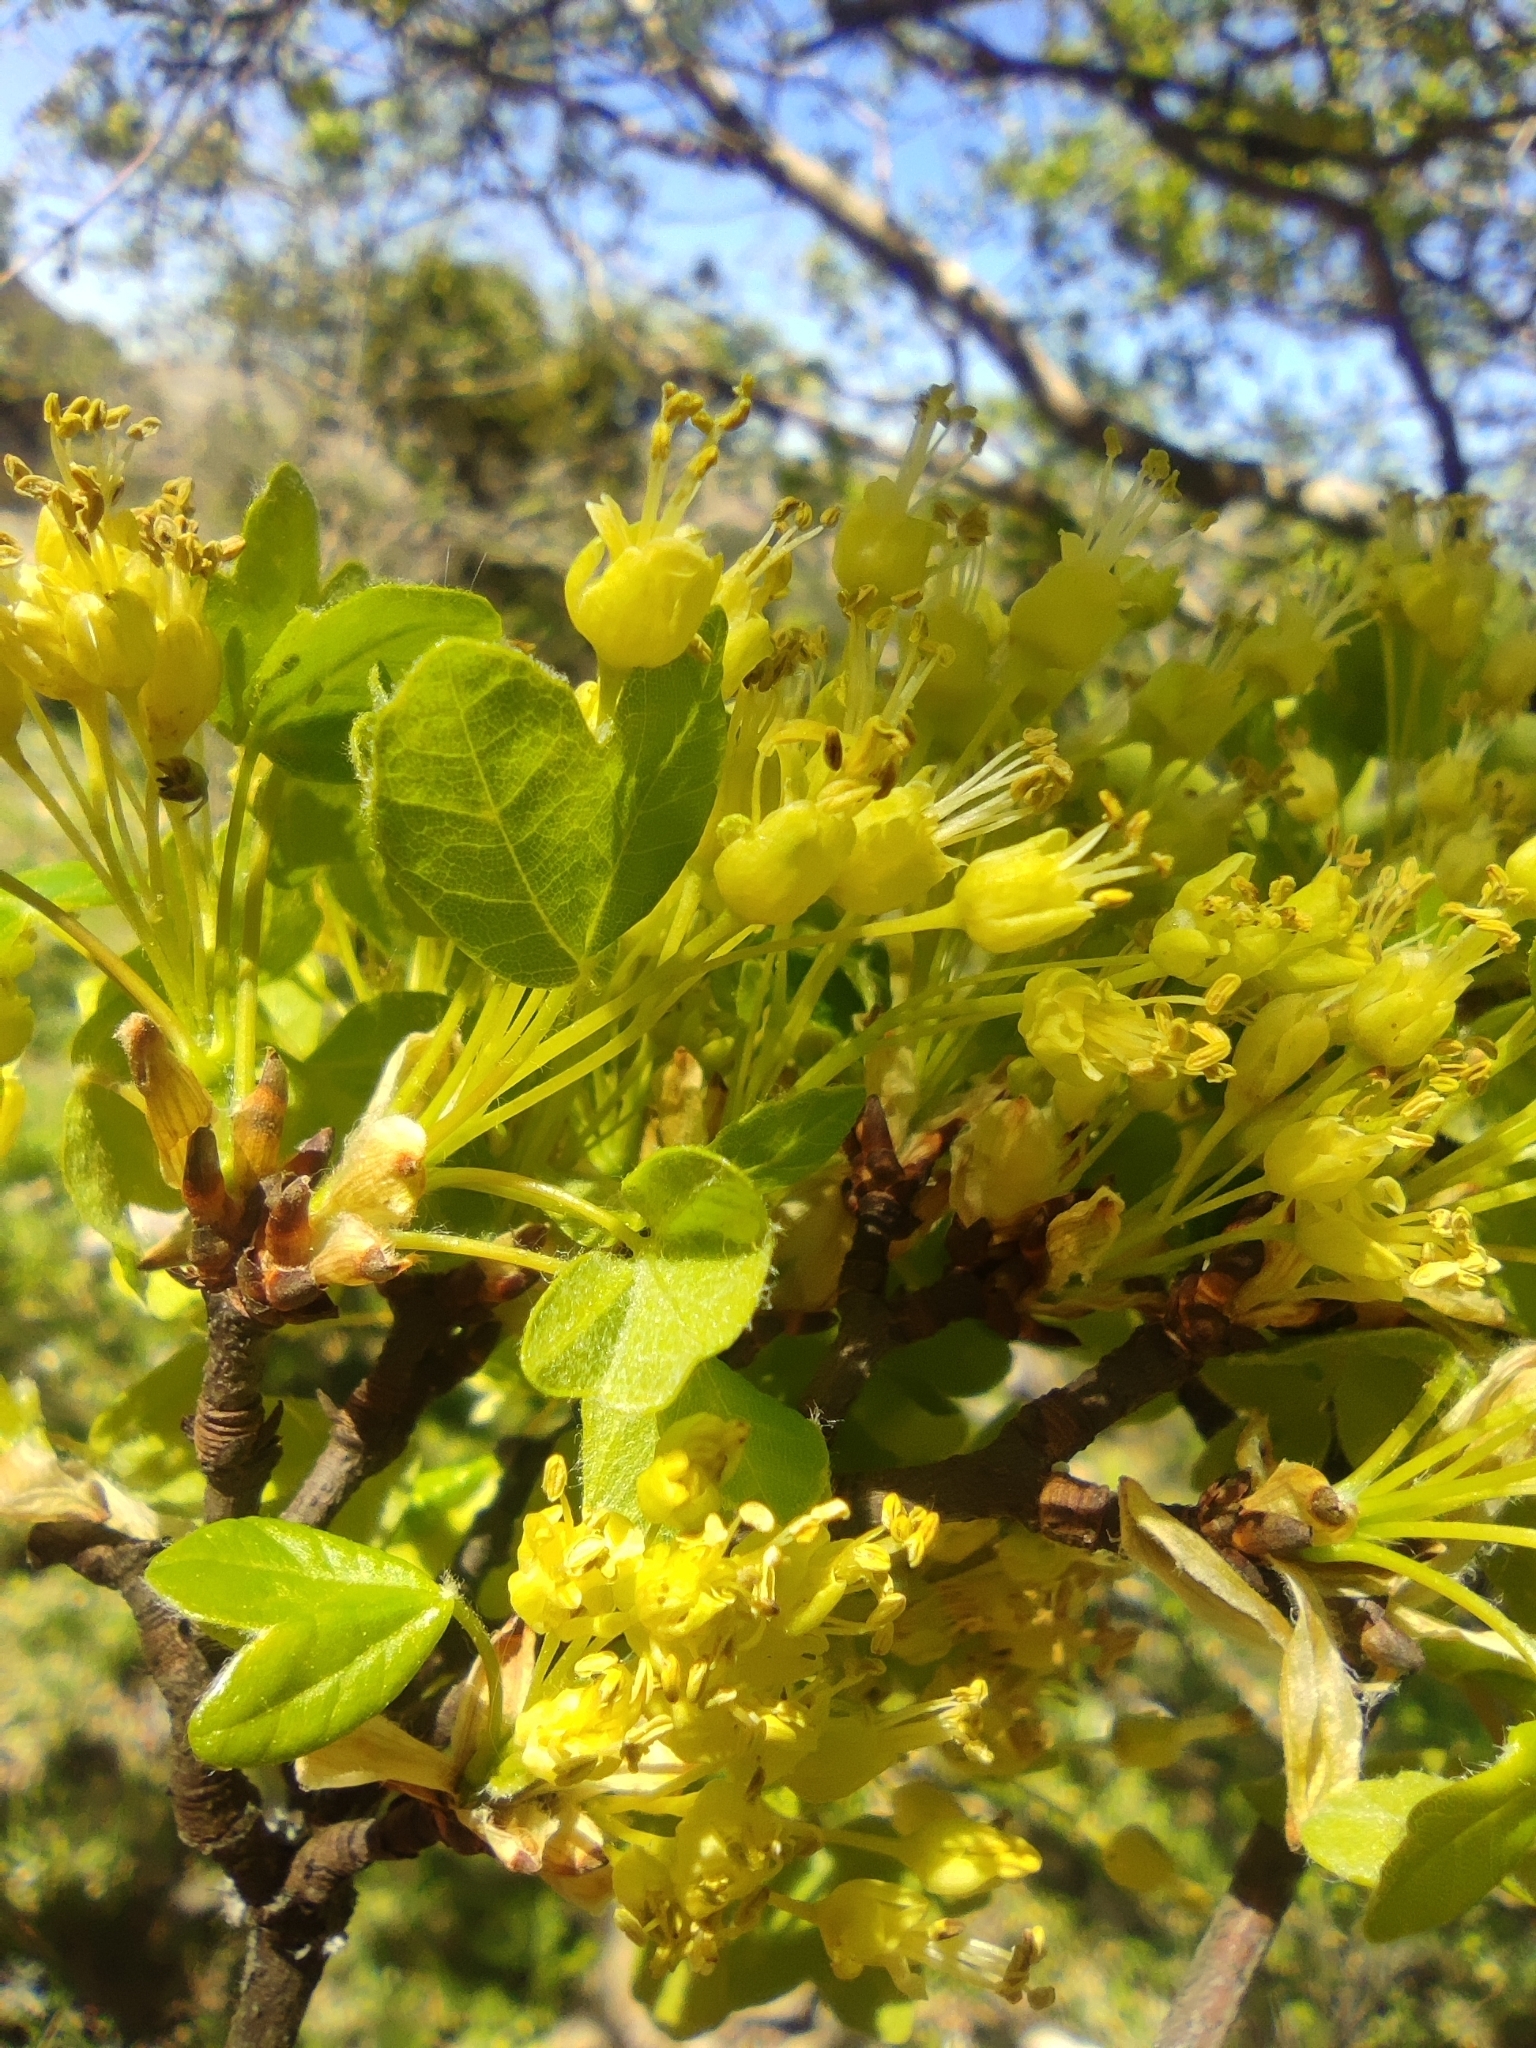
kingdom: Plantae
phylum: Tracheophyta
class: Magnoliopsida
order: Sapindales
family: Sapindaceae
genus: Acer
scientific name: Acer monspessulanum
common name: Montpellier maple
